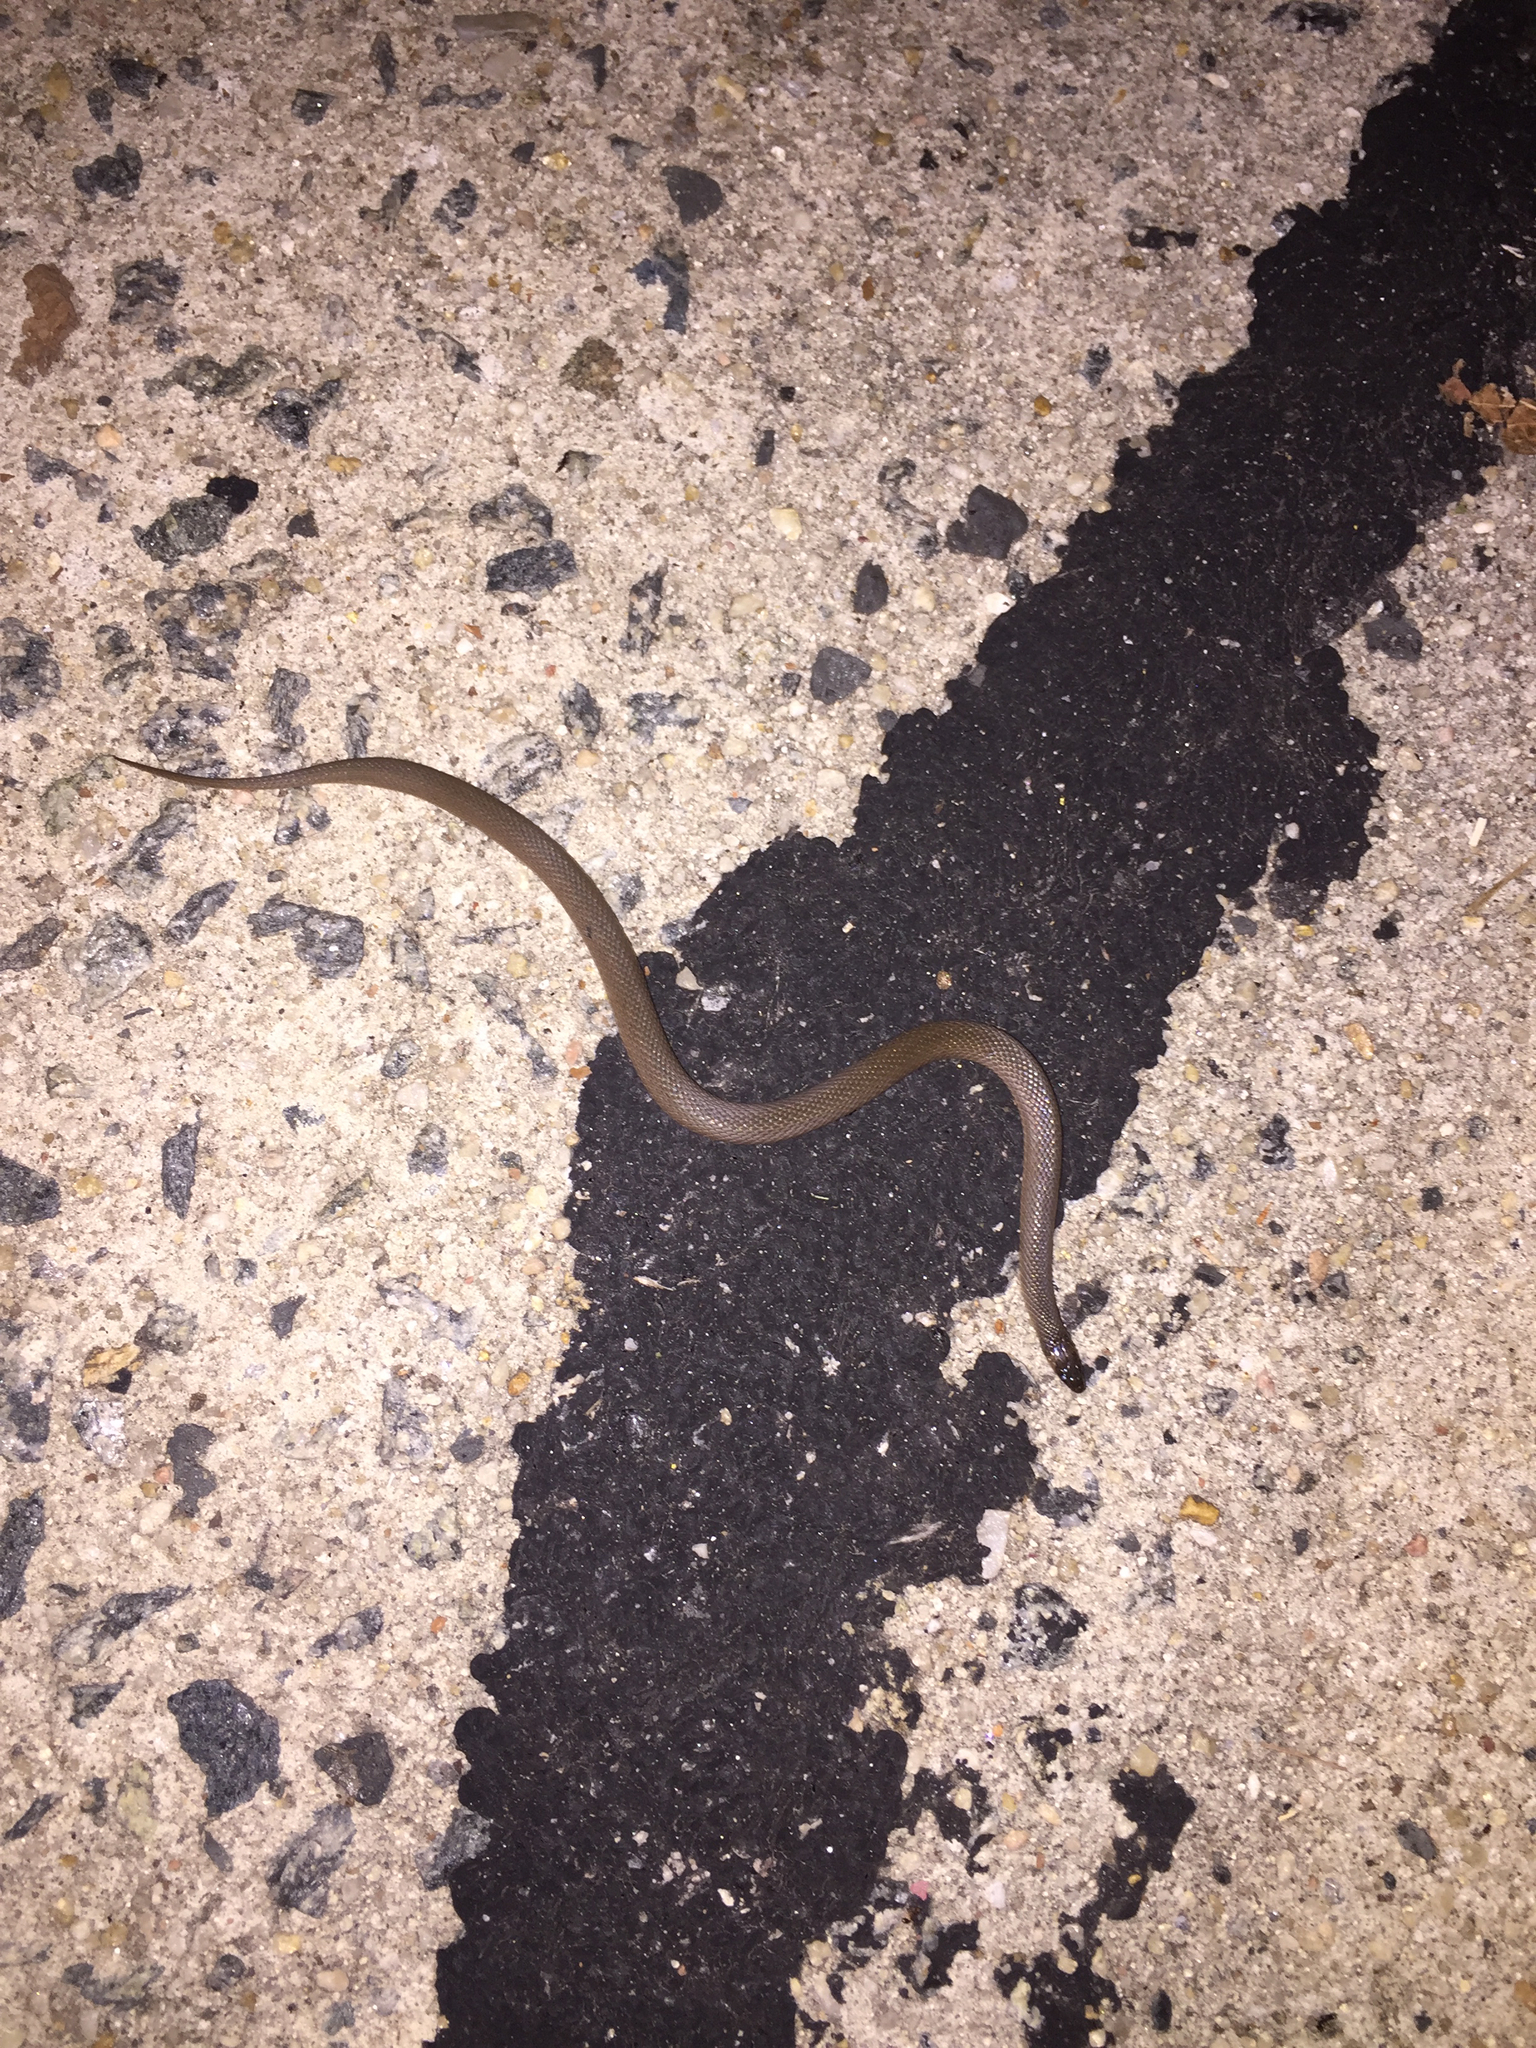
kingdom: Animalia
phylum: Chordata
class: Squamata
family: Colubridae
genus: Haldea
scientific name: Haldea striatula
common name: Rough earth snake
